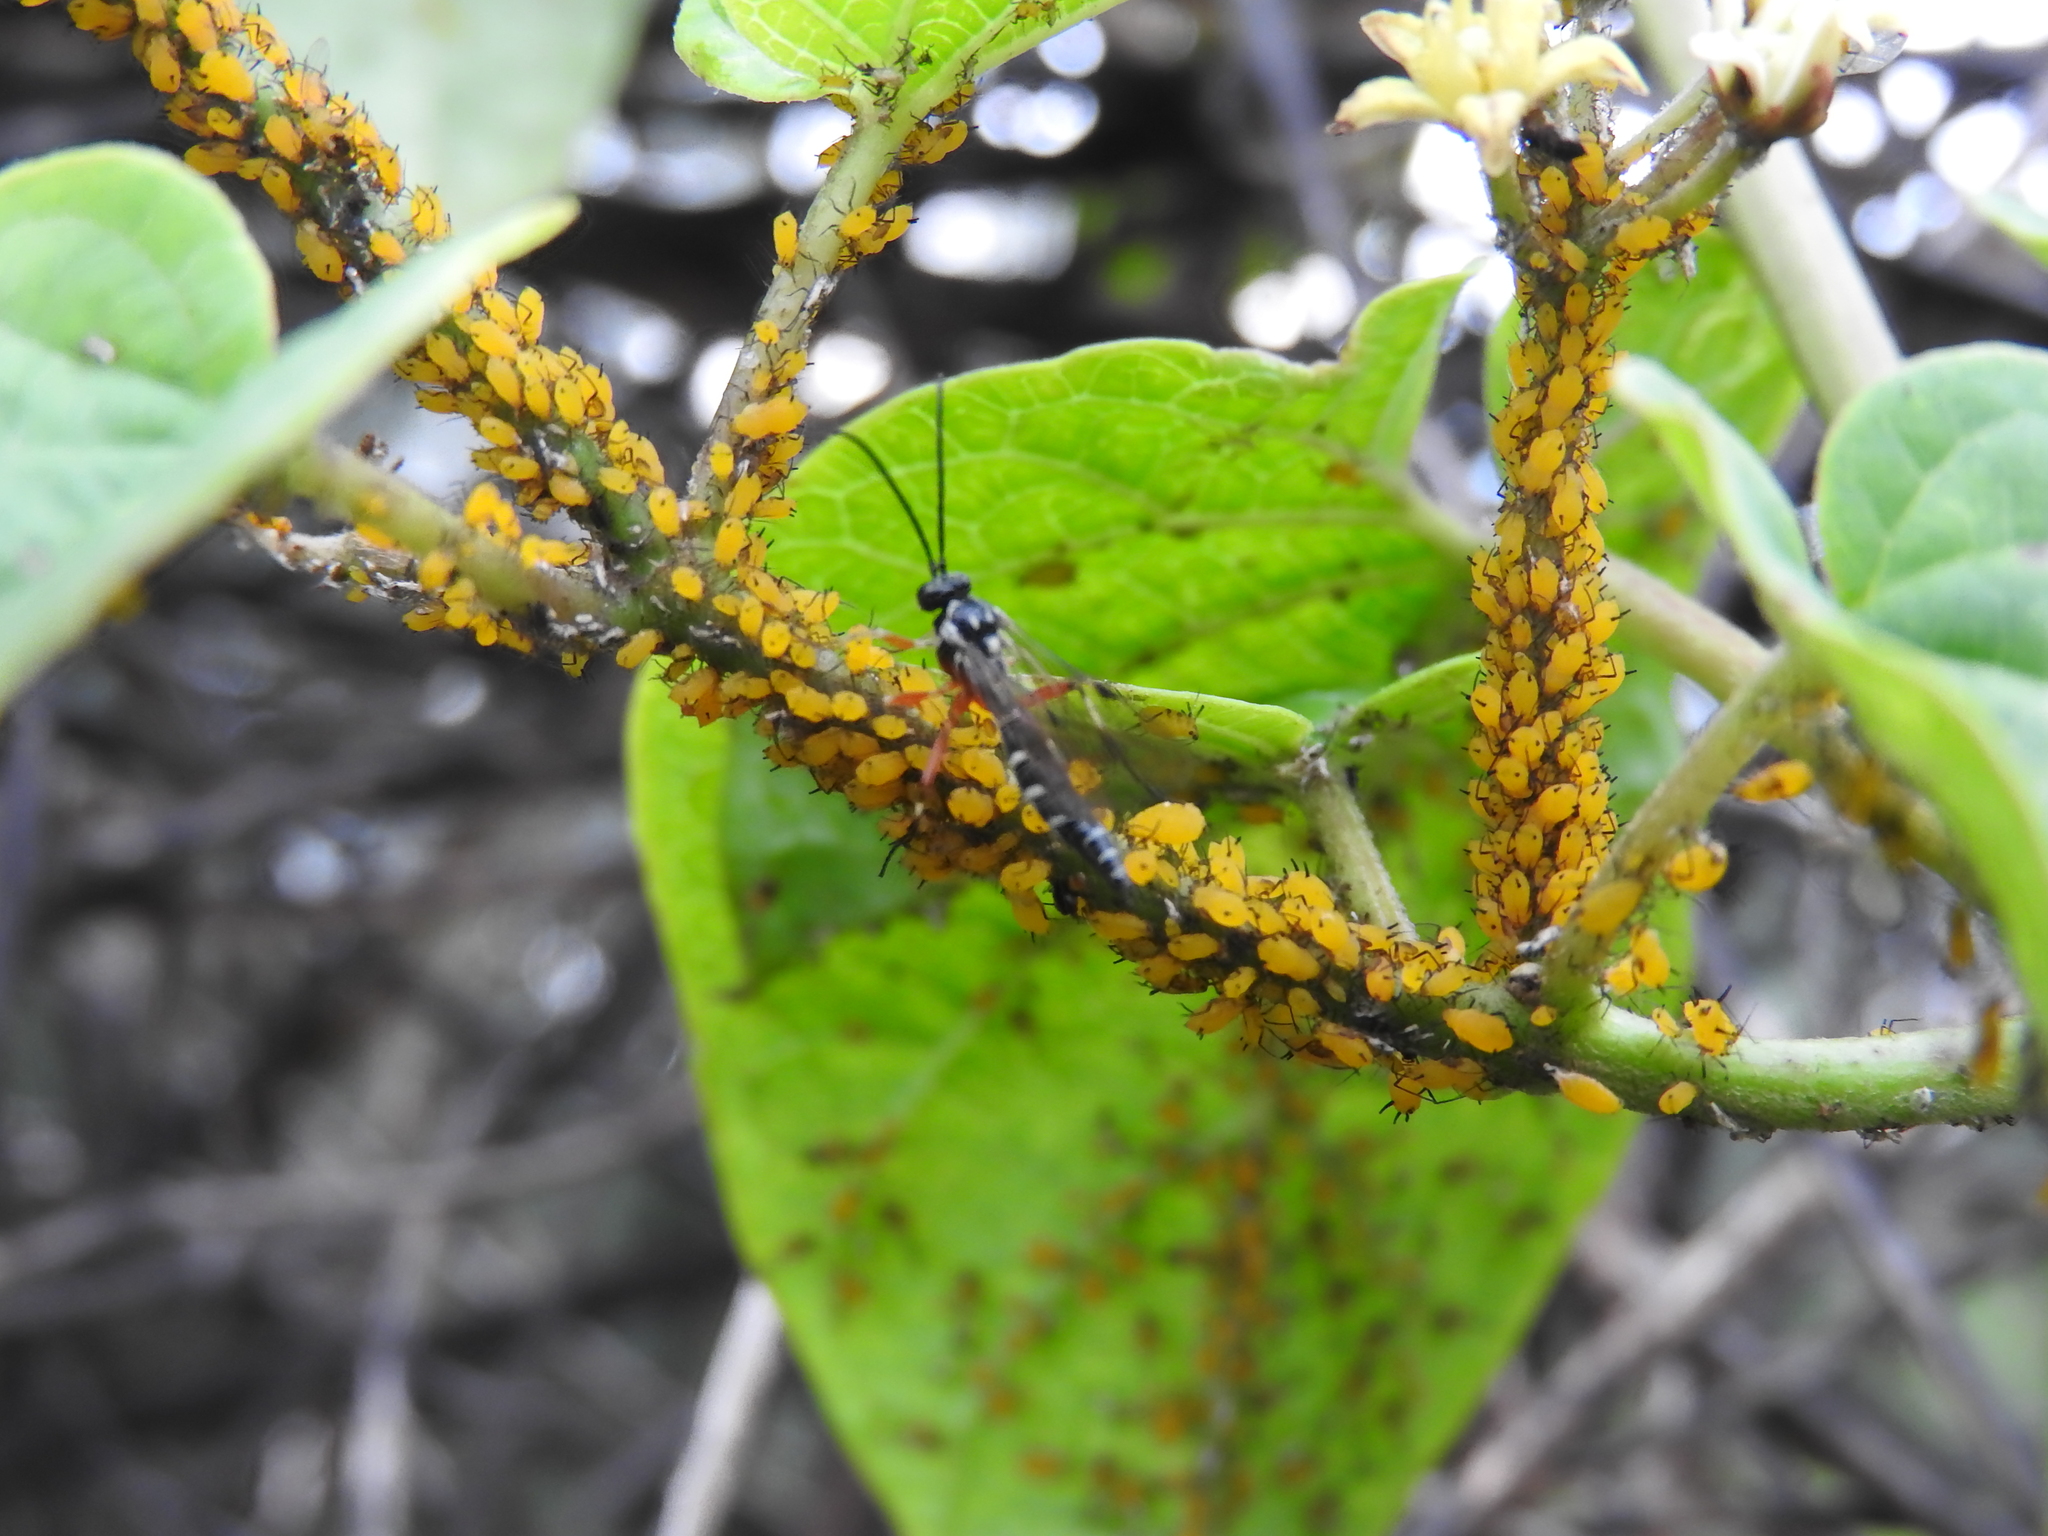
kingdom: Animalia
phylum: Arthropoda
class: Insecta
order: Hemiptera
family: Aphididae
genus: Aphis
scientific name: Aphis nerii
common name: Oleander aphid
